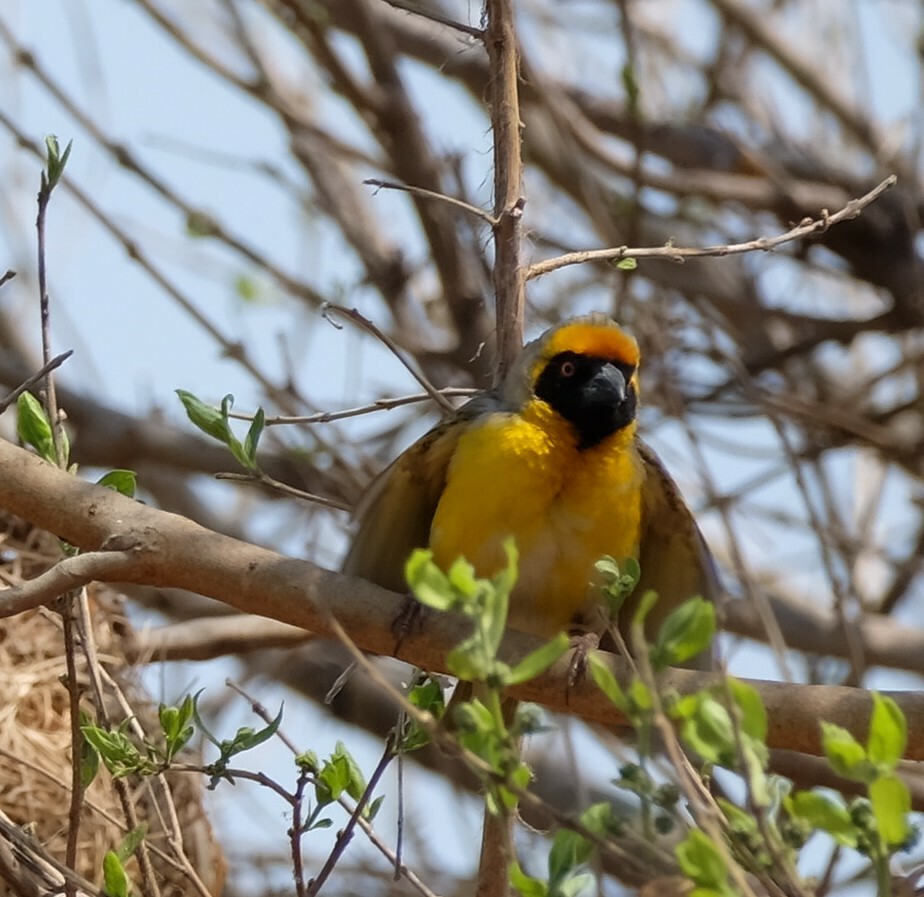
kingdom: Animalia
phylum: Chordata
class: Aves
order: Passeriformes
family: Ploceidae
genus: Ploceus
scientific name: Ploceus velatus
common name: Southern masked weaver
